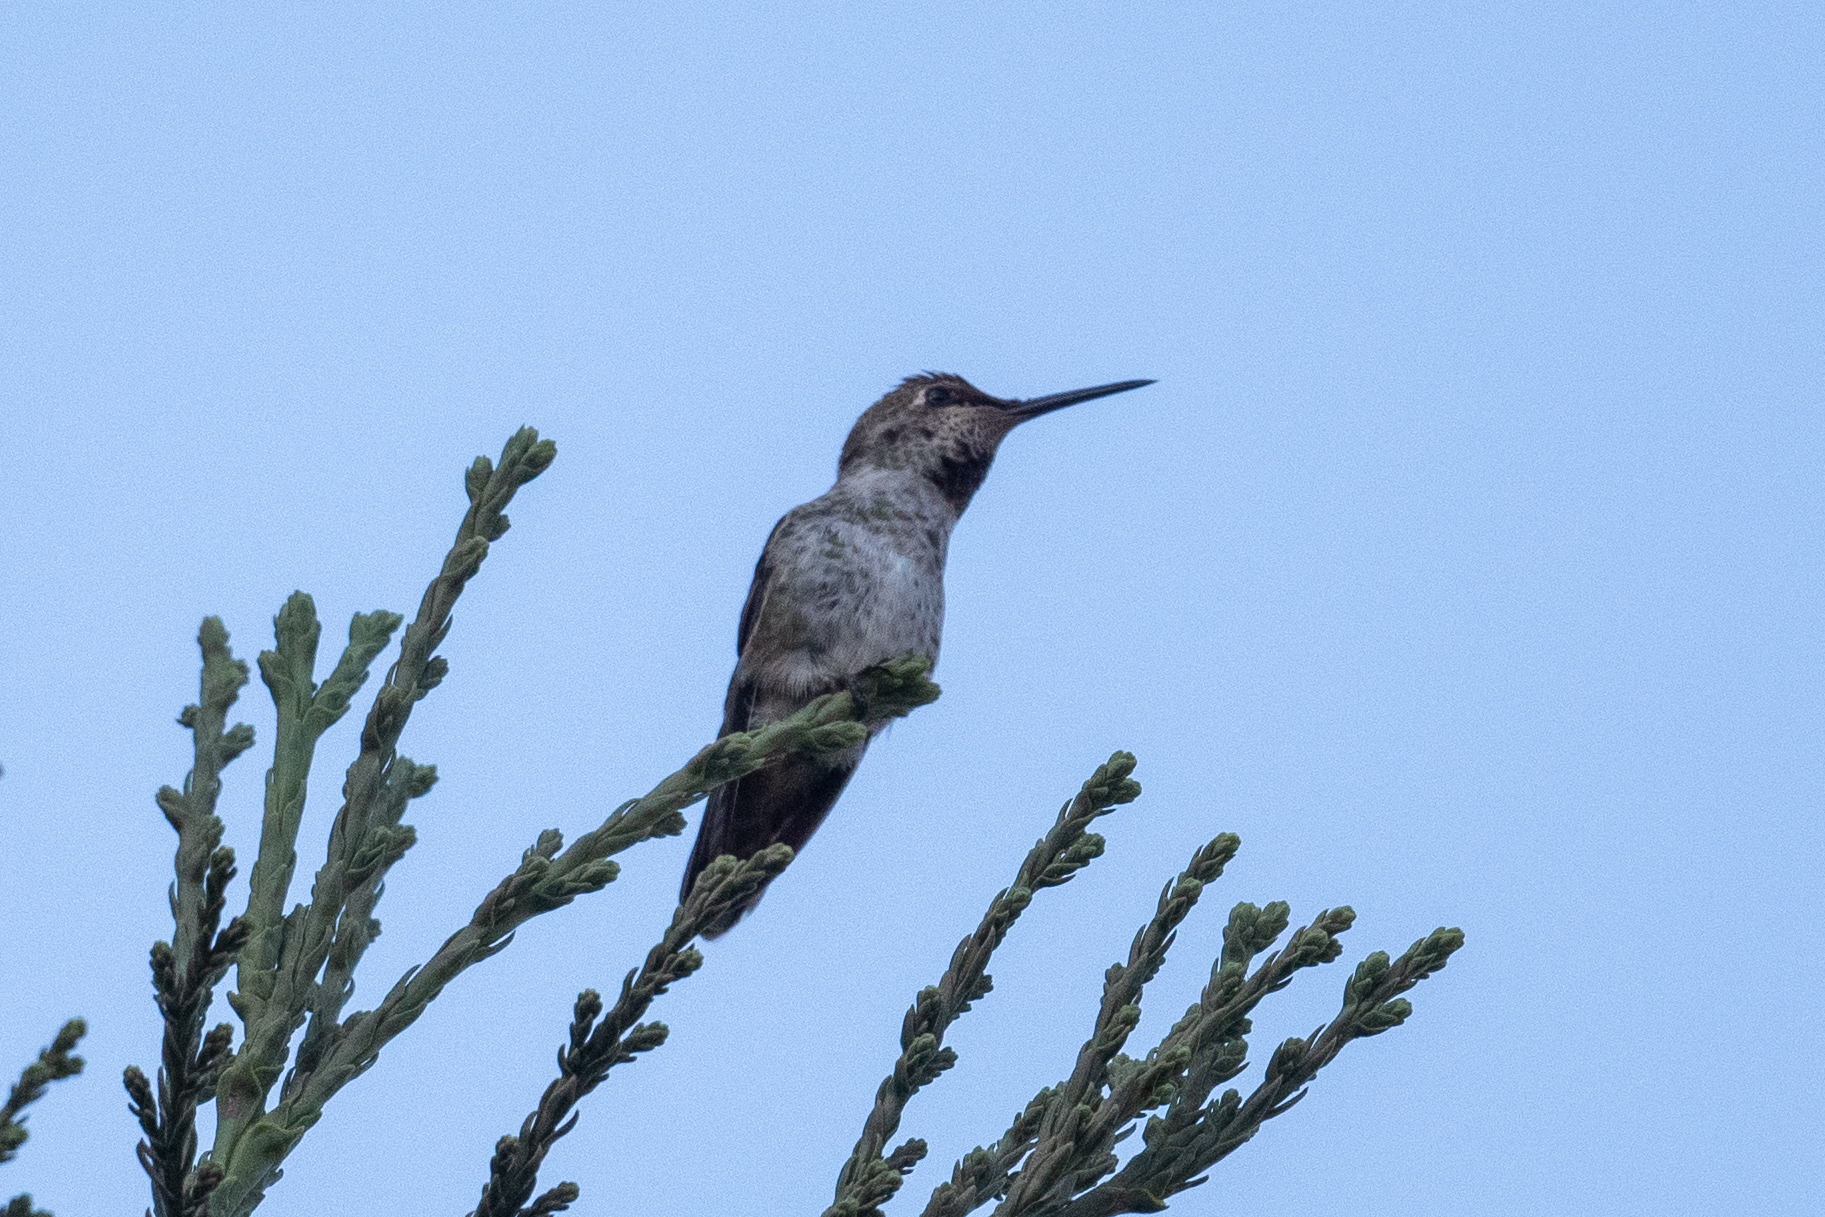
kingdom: Animalia
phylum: Chordata
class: Aves
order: Apodiformes
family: Trochilidae
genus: Calypte
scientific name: Calypte anna
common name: Anna's hummingbird
